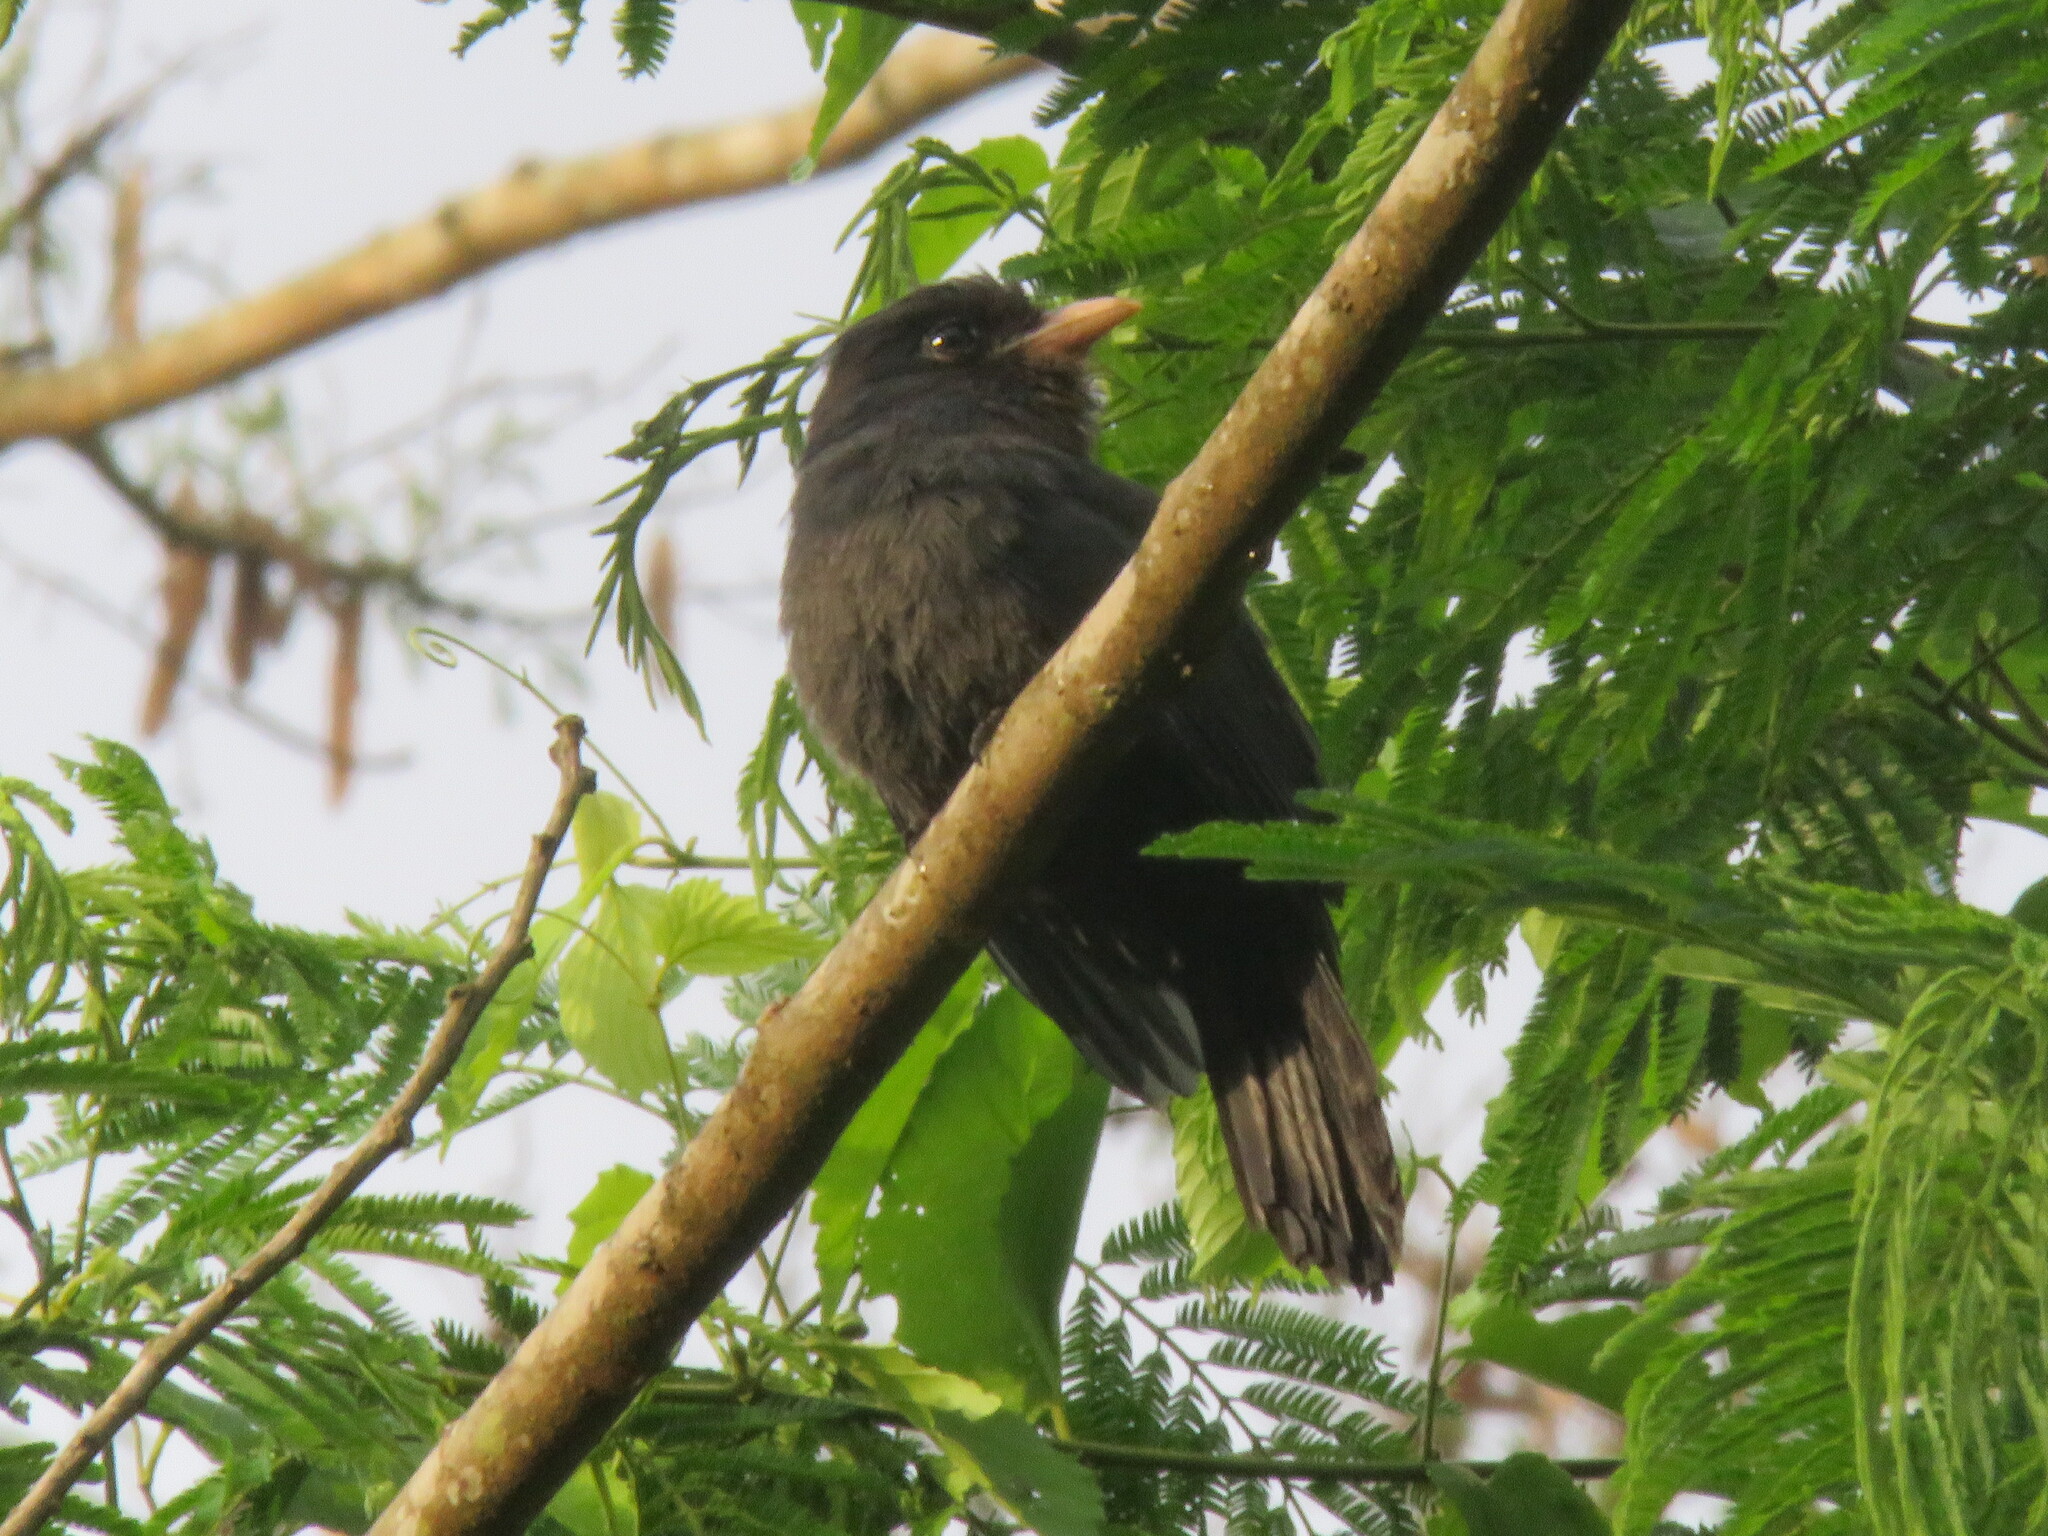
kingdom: Animalia
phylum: Chordata
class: Aves
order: Piciformes
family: Bucconidae
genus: Monasa
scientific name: Monasa nigrifrons
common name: Black-fronted nunbird
